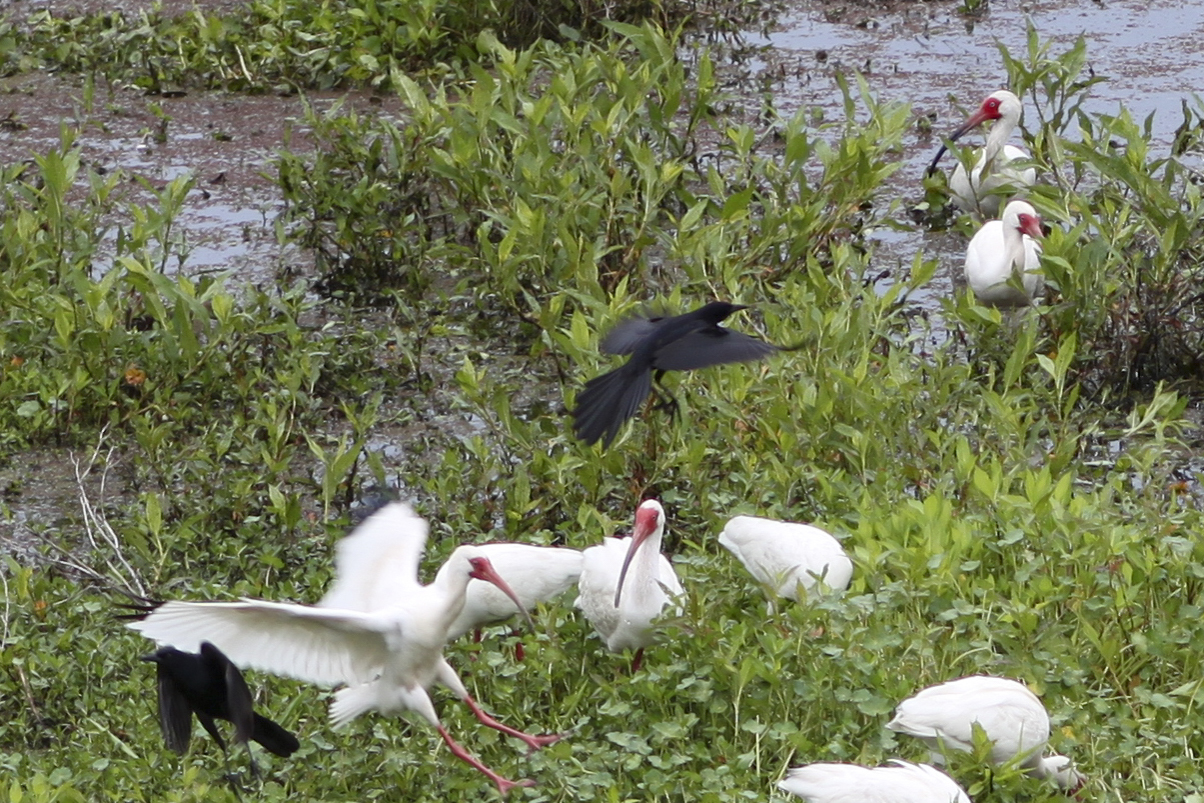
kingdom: Animalia
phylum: Chordata
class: Aves
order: Passeriformes
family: Icteridae
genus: Quiscalus
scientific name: Quiscalus major
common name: Boat-tailed grackle
